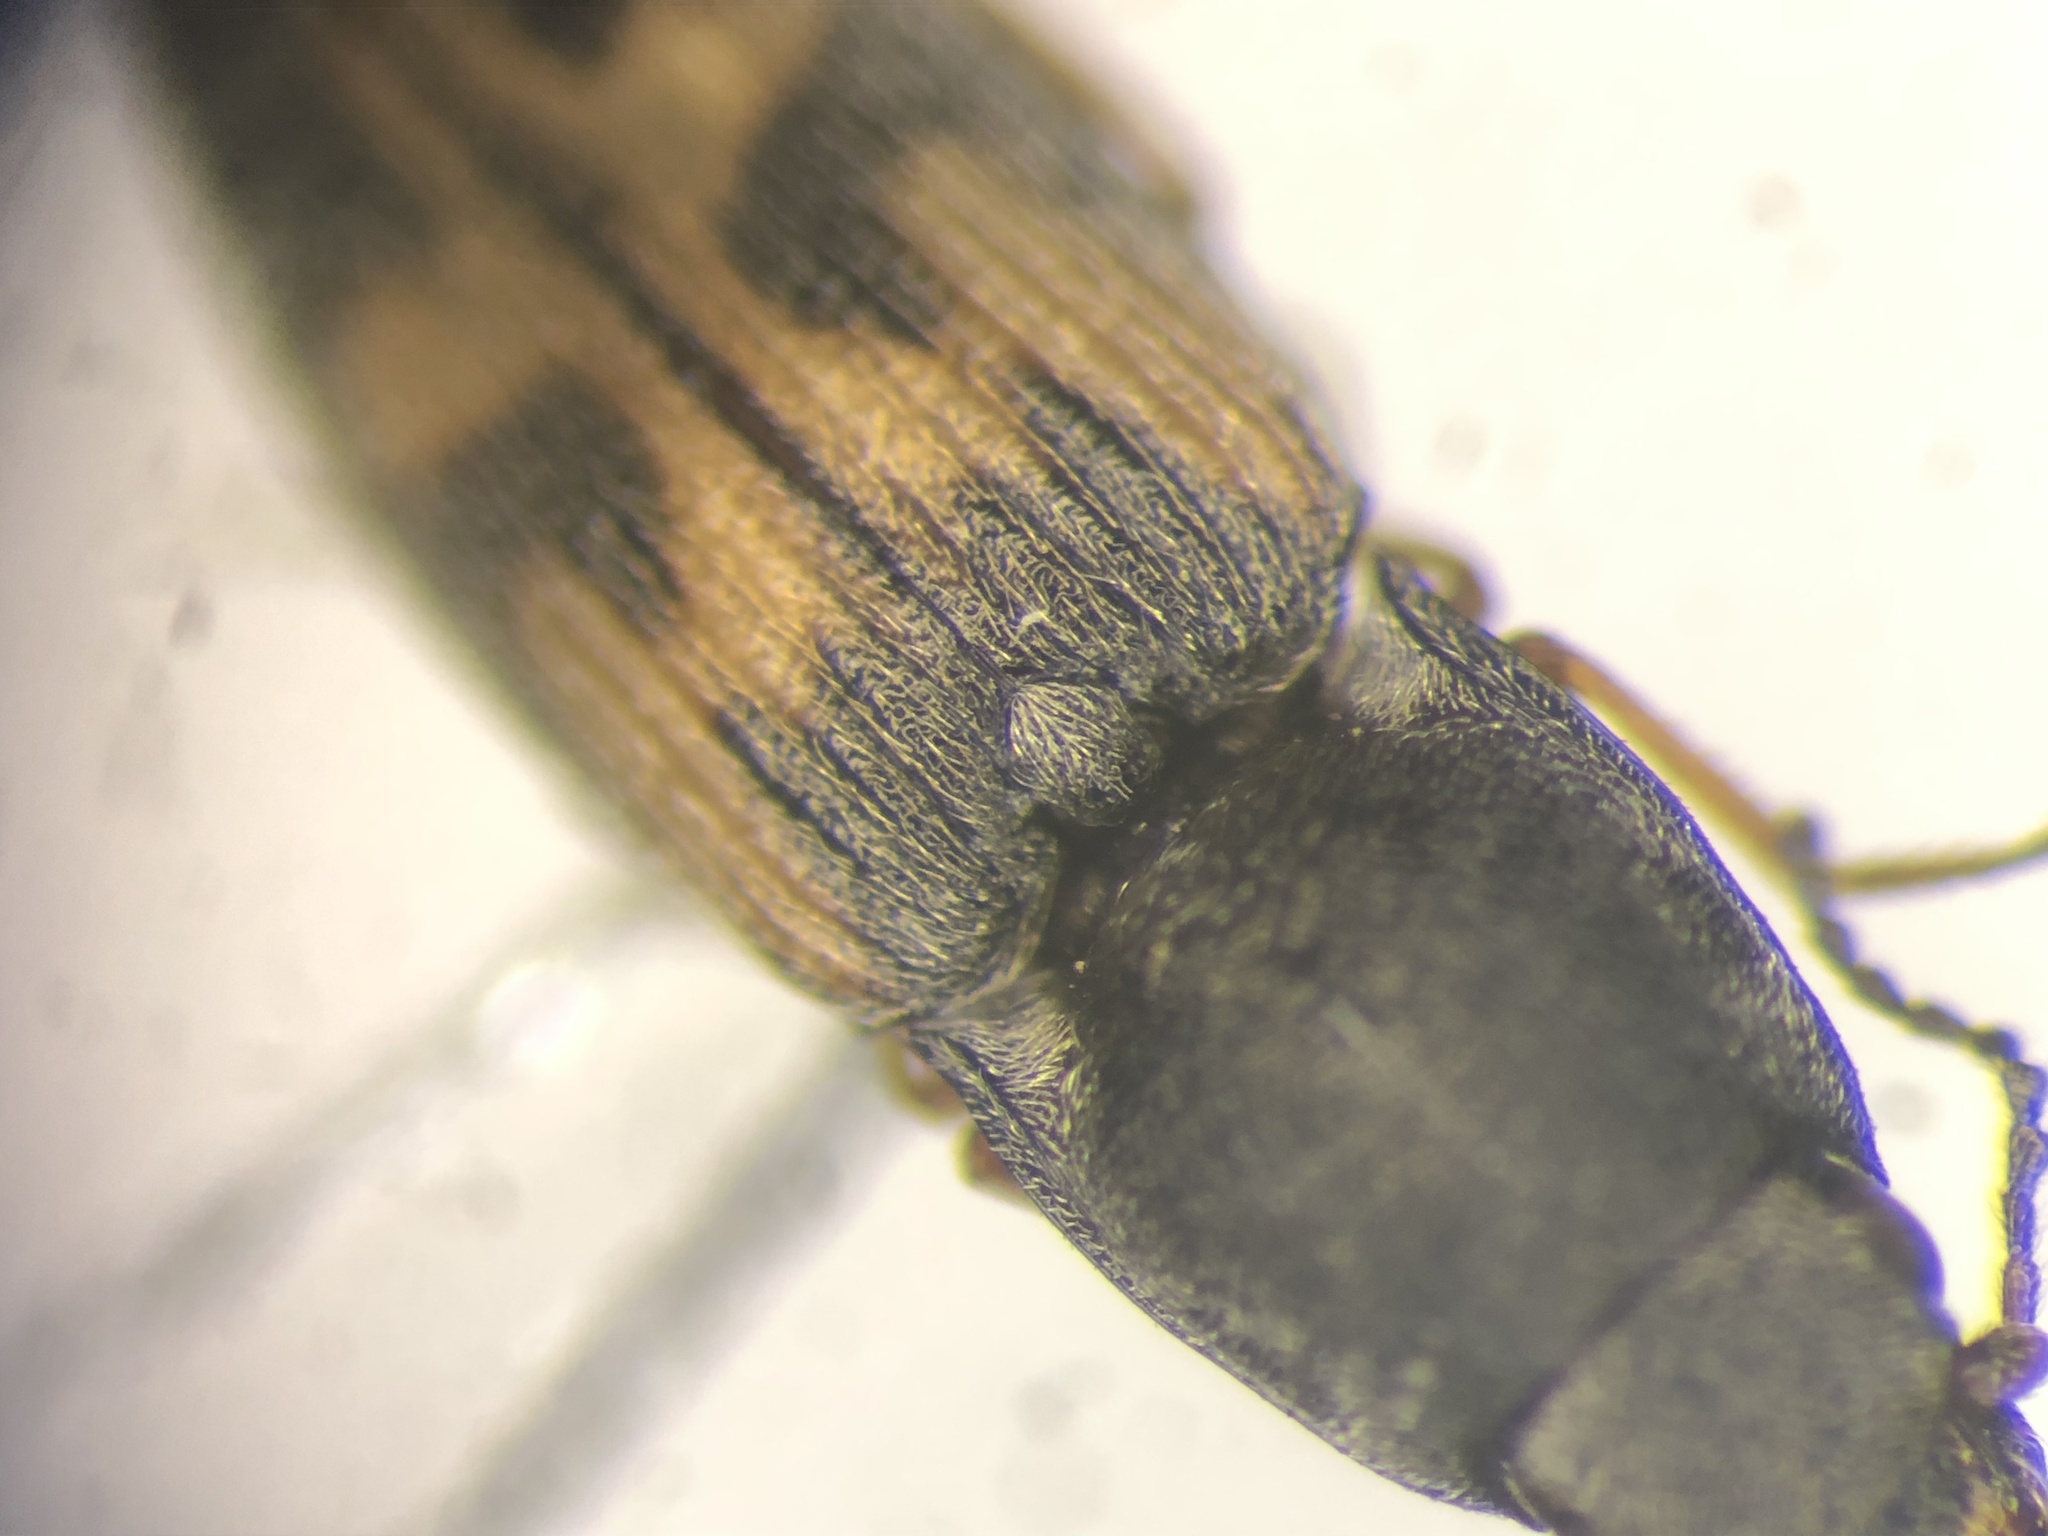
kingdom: Animalia
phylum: Arthropoda
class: Insecta
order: Coleoptera
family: Elateridae
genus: Negastrius
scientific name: Negastrius arnetti
